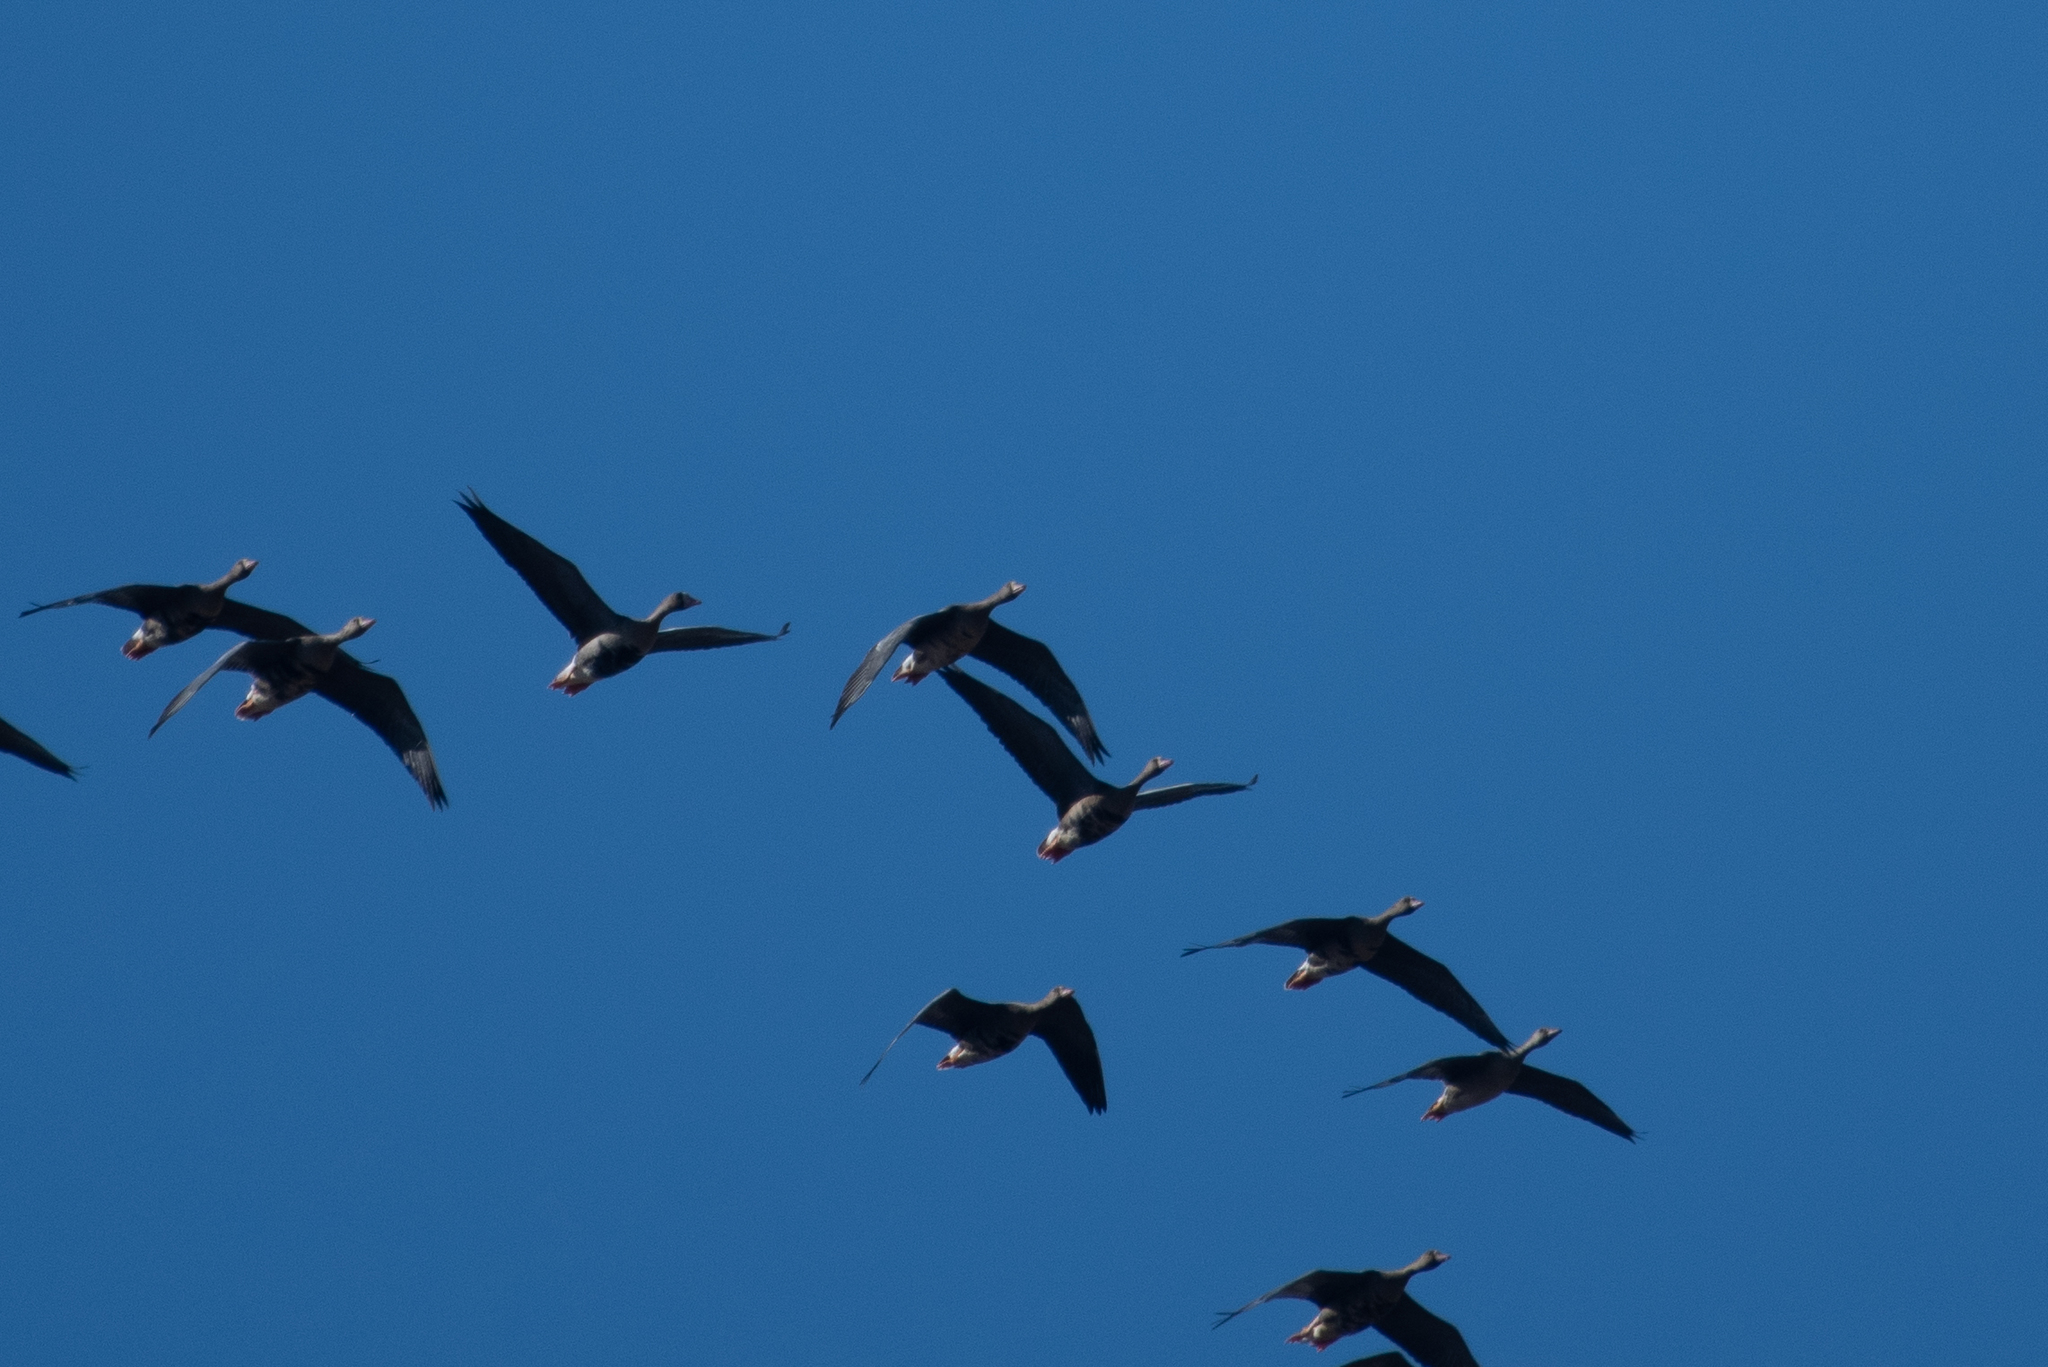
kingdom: Animalia
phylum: Chordata
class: Aves
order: Anseriformes
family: Anatidae
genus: Anser
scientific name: Anser albifrons
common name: Greater white-fronted goose
